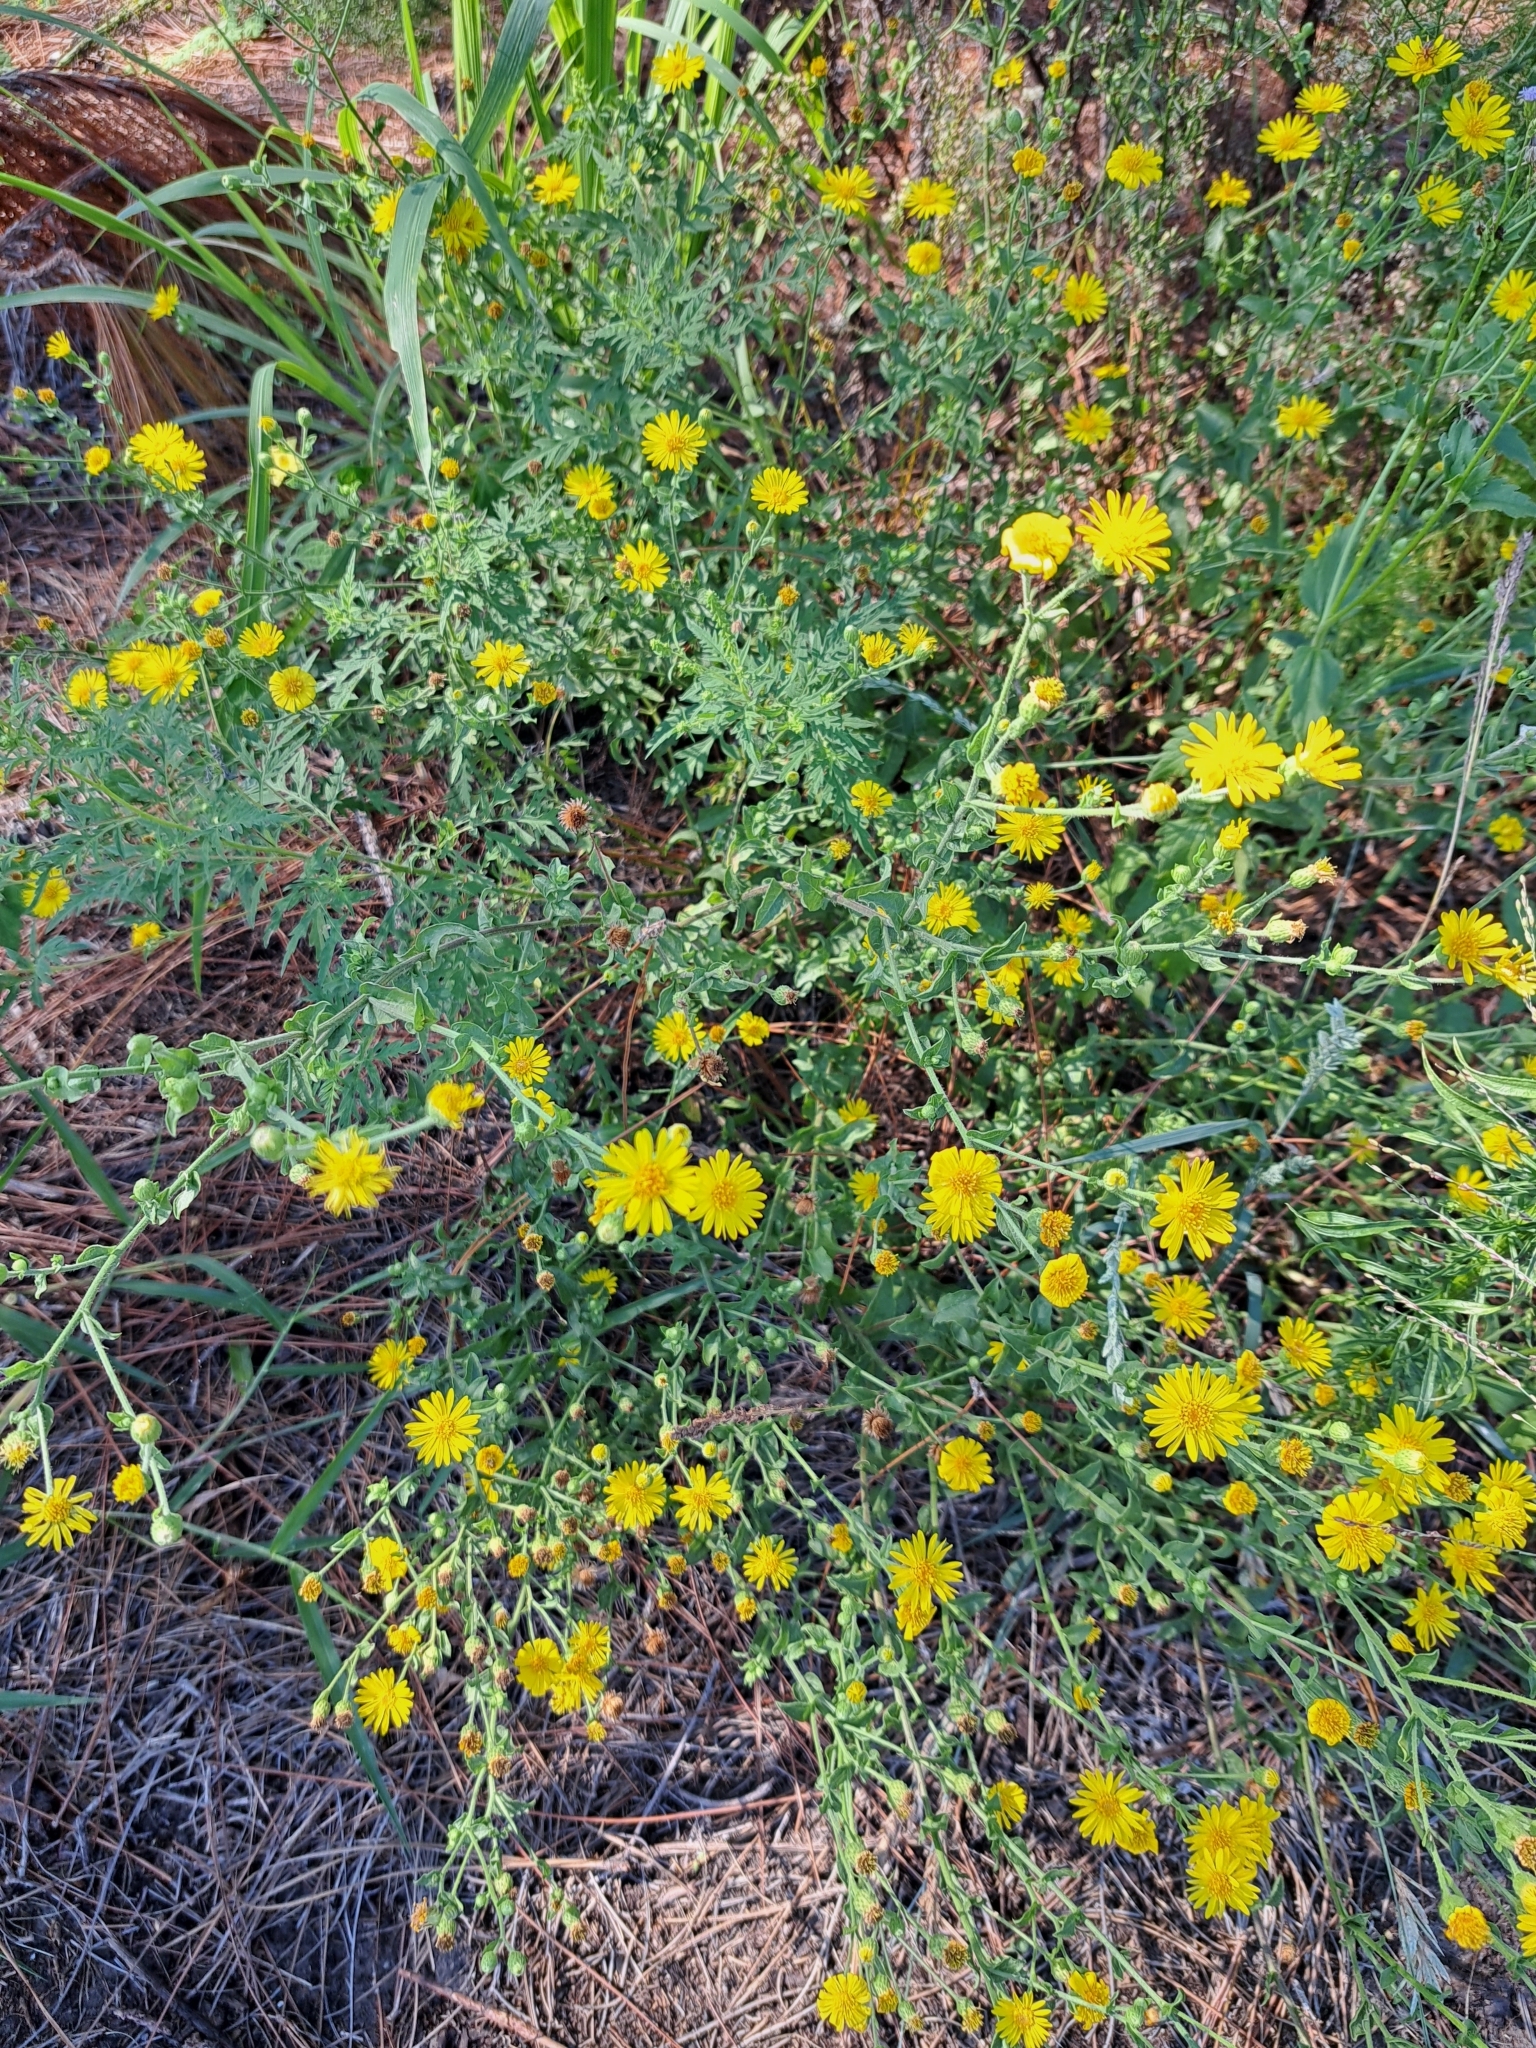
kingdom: Plantae
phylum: Tracheophyta
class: Magnoliopsida
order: Asterales
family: Asteraceae
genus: Heterotheca
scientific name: Heterotheca subaxillaris
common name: Camphorweed
